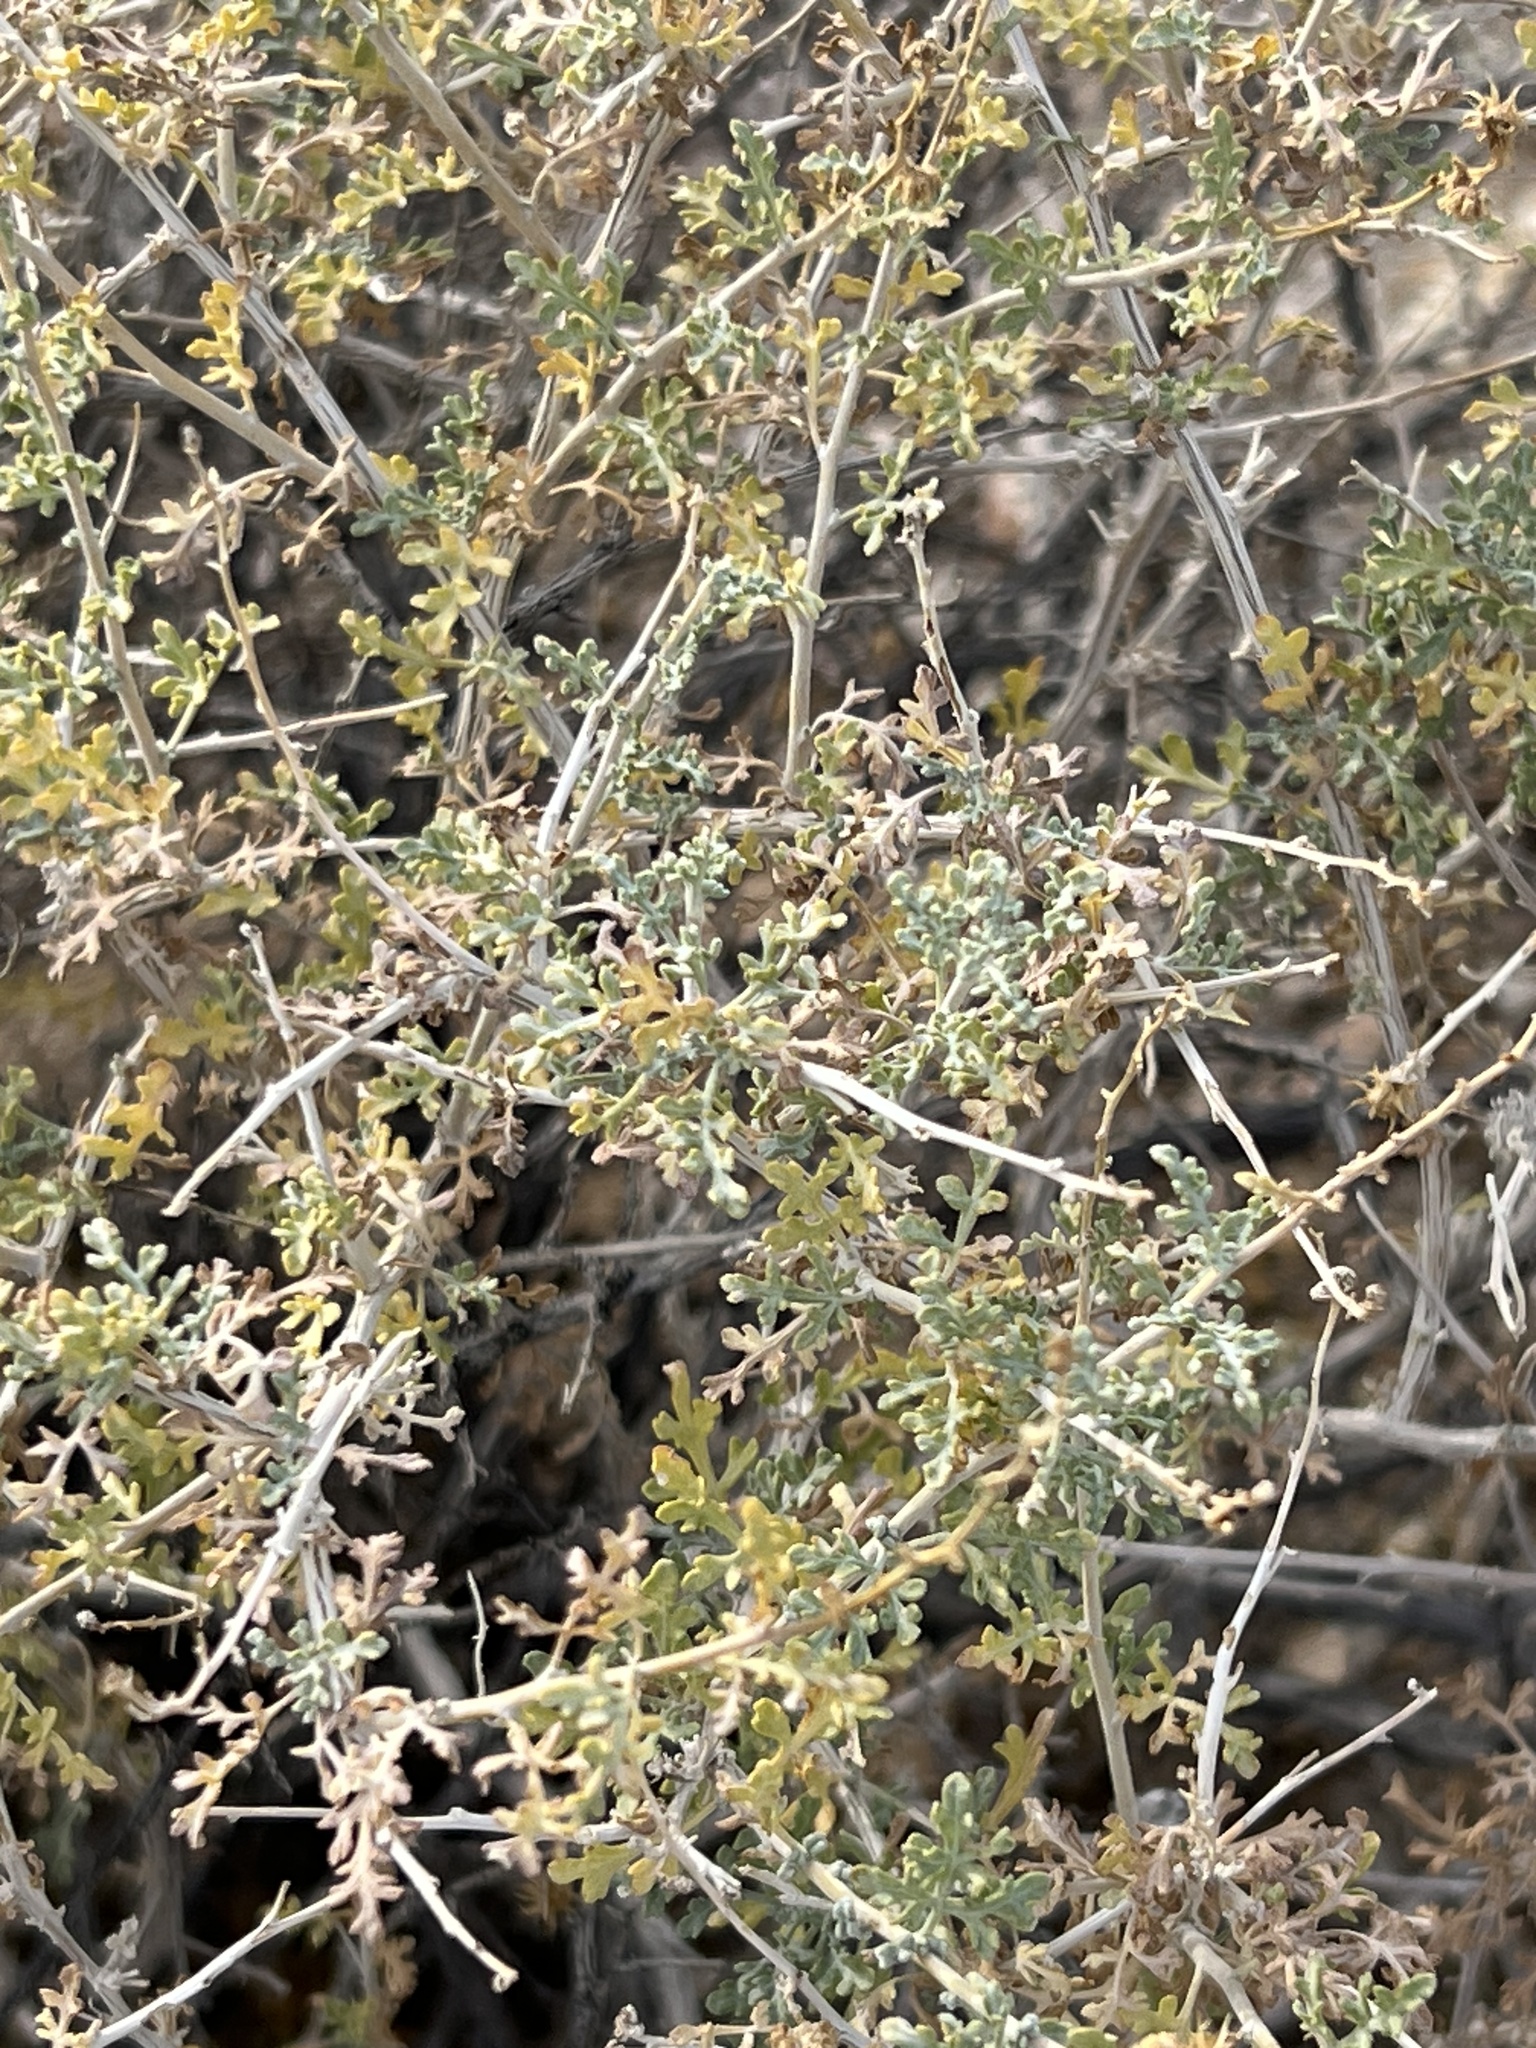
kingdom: Plantae
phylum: Tracheophyta
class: Magnoliopsida
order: Asterales
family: Asteraceae
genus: Ambrosia
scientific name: Ambrosia dumosa
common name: Bur-sage
